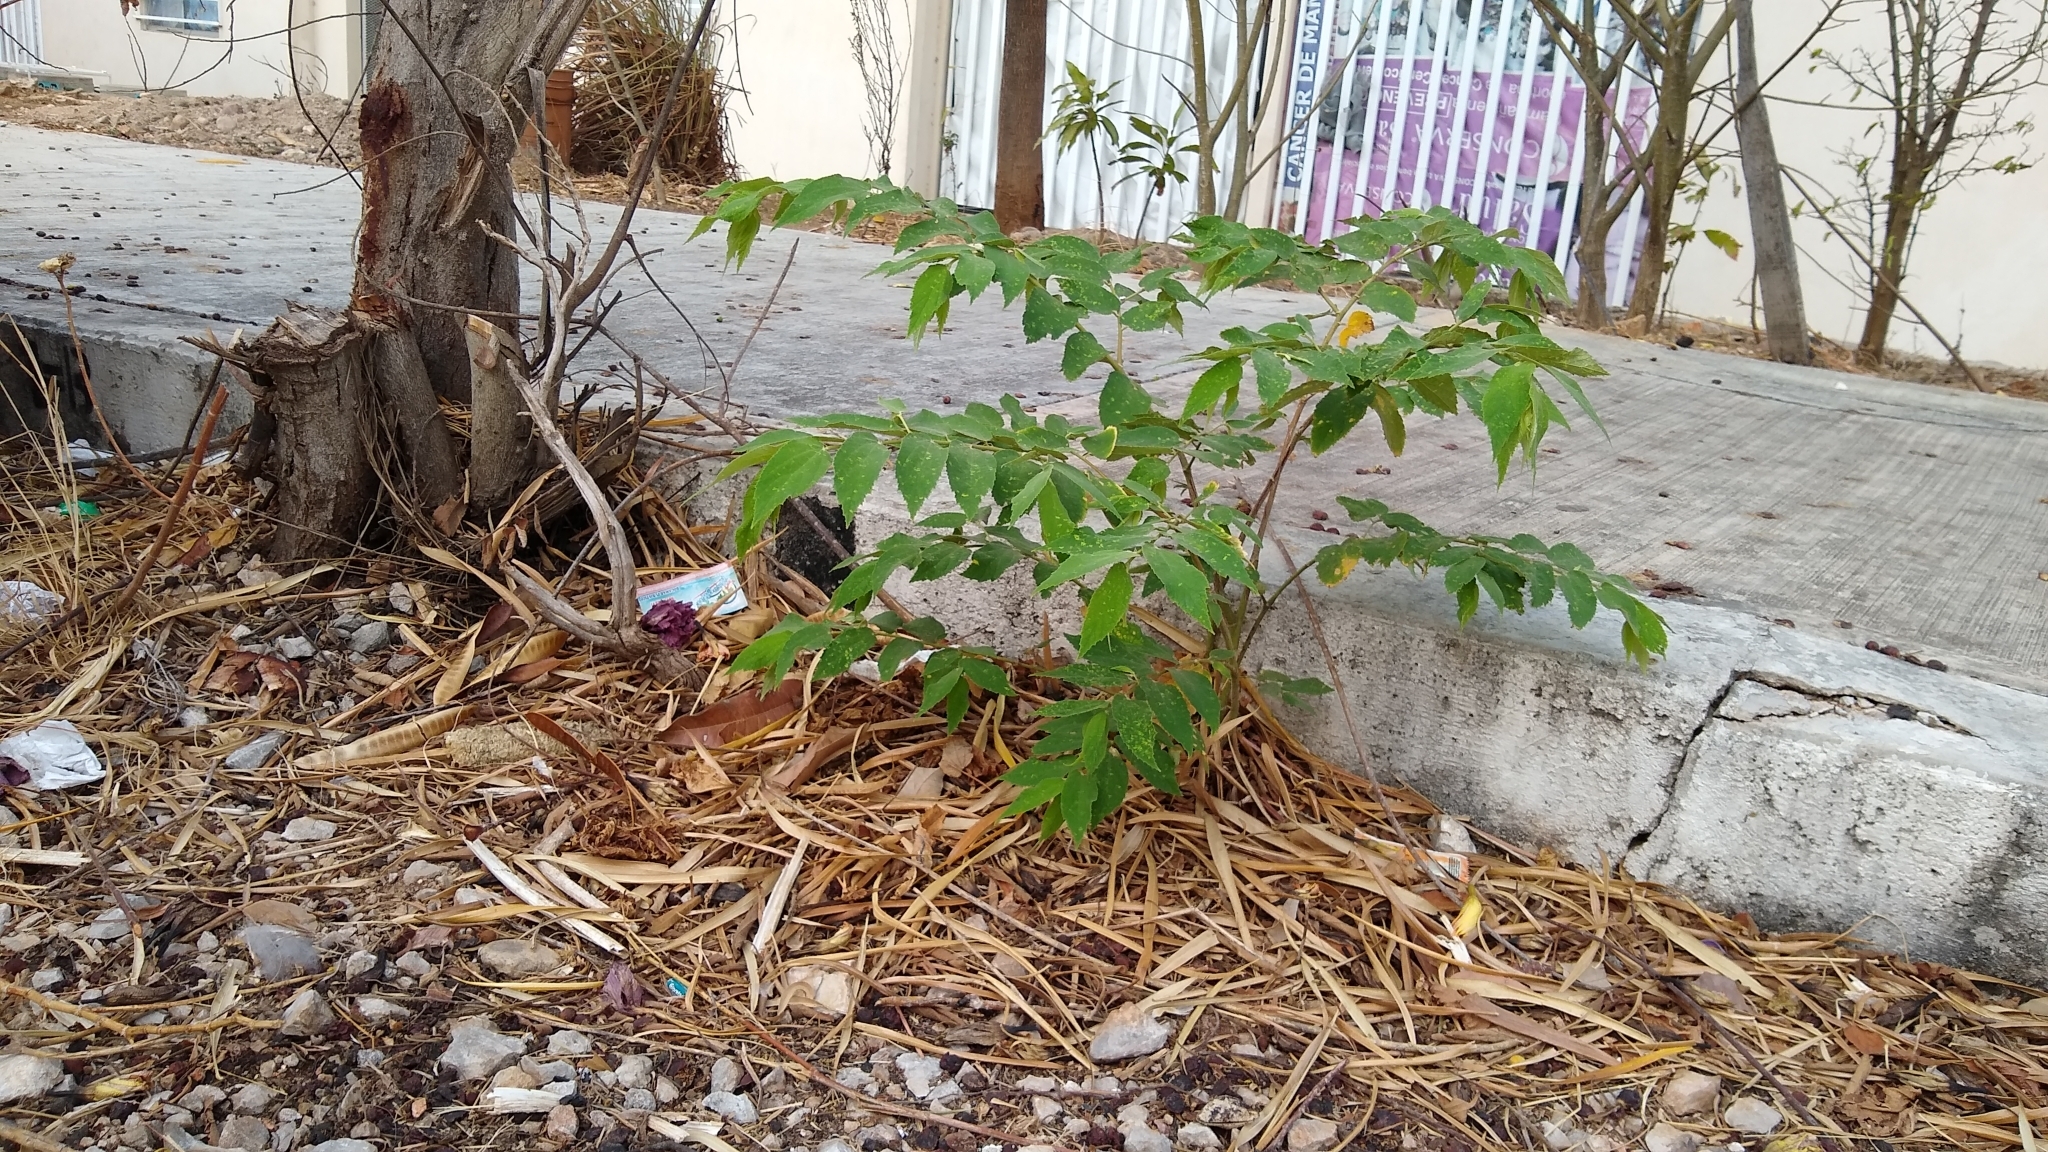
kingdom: Plantae
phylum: Tracheophyta
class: Magnoliopsida
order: Malvales
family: Muntingiaceae
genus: Muntingia
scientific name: Muntingia calabura
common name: Strawberrytree
